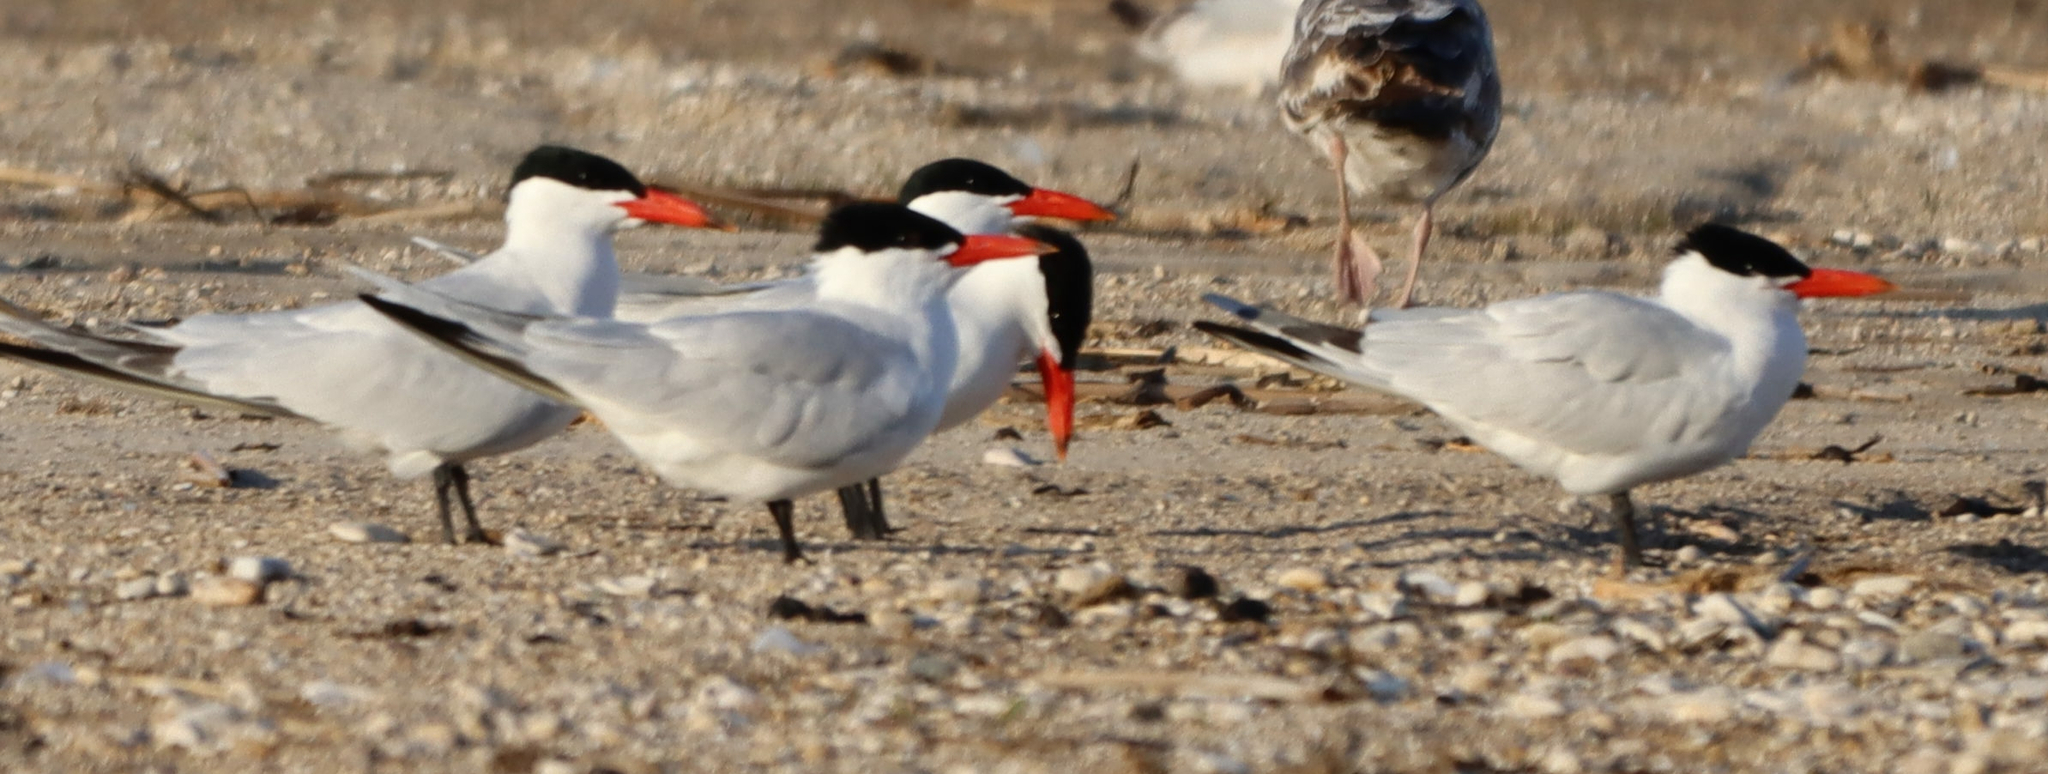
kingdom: Animalia
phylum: Chordata
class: Aves
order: Charadriiformes
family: Laridae
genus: Hydroprogne
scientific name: Hydroprogne caspia
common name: Caspian tern
